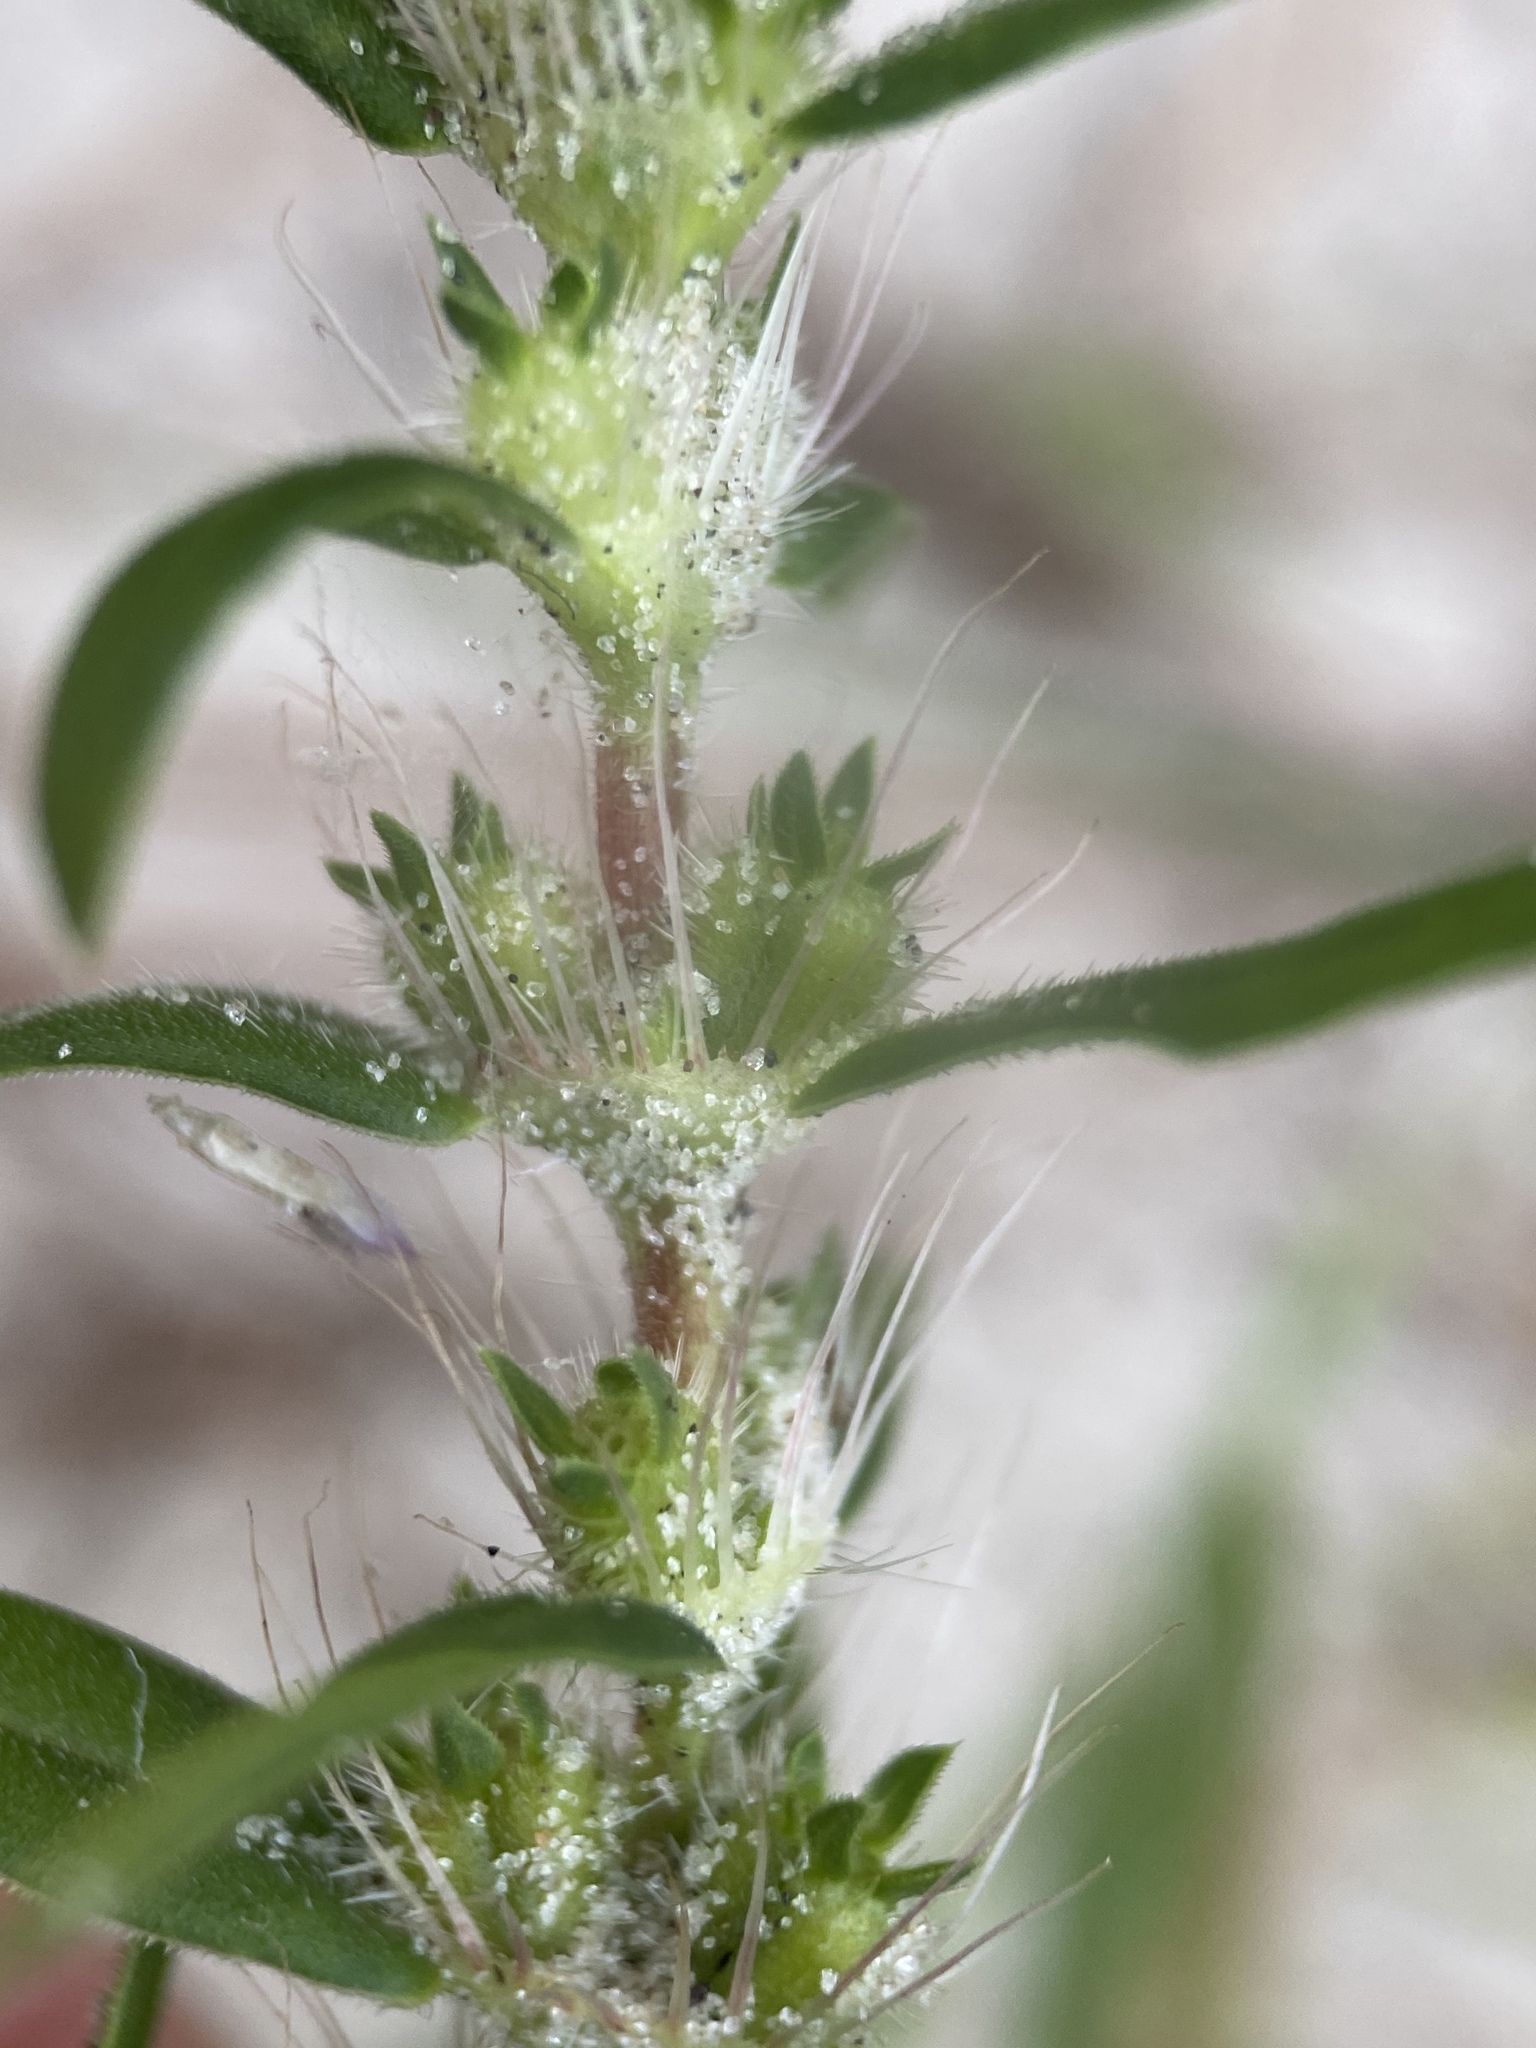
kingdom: Plantae
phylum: Tracheophyta
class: Magnoliopsida
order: Gentianales
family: Rubiaceae
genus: Hexasepalum
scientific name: Hexasepalum teres
